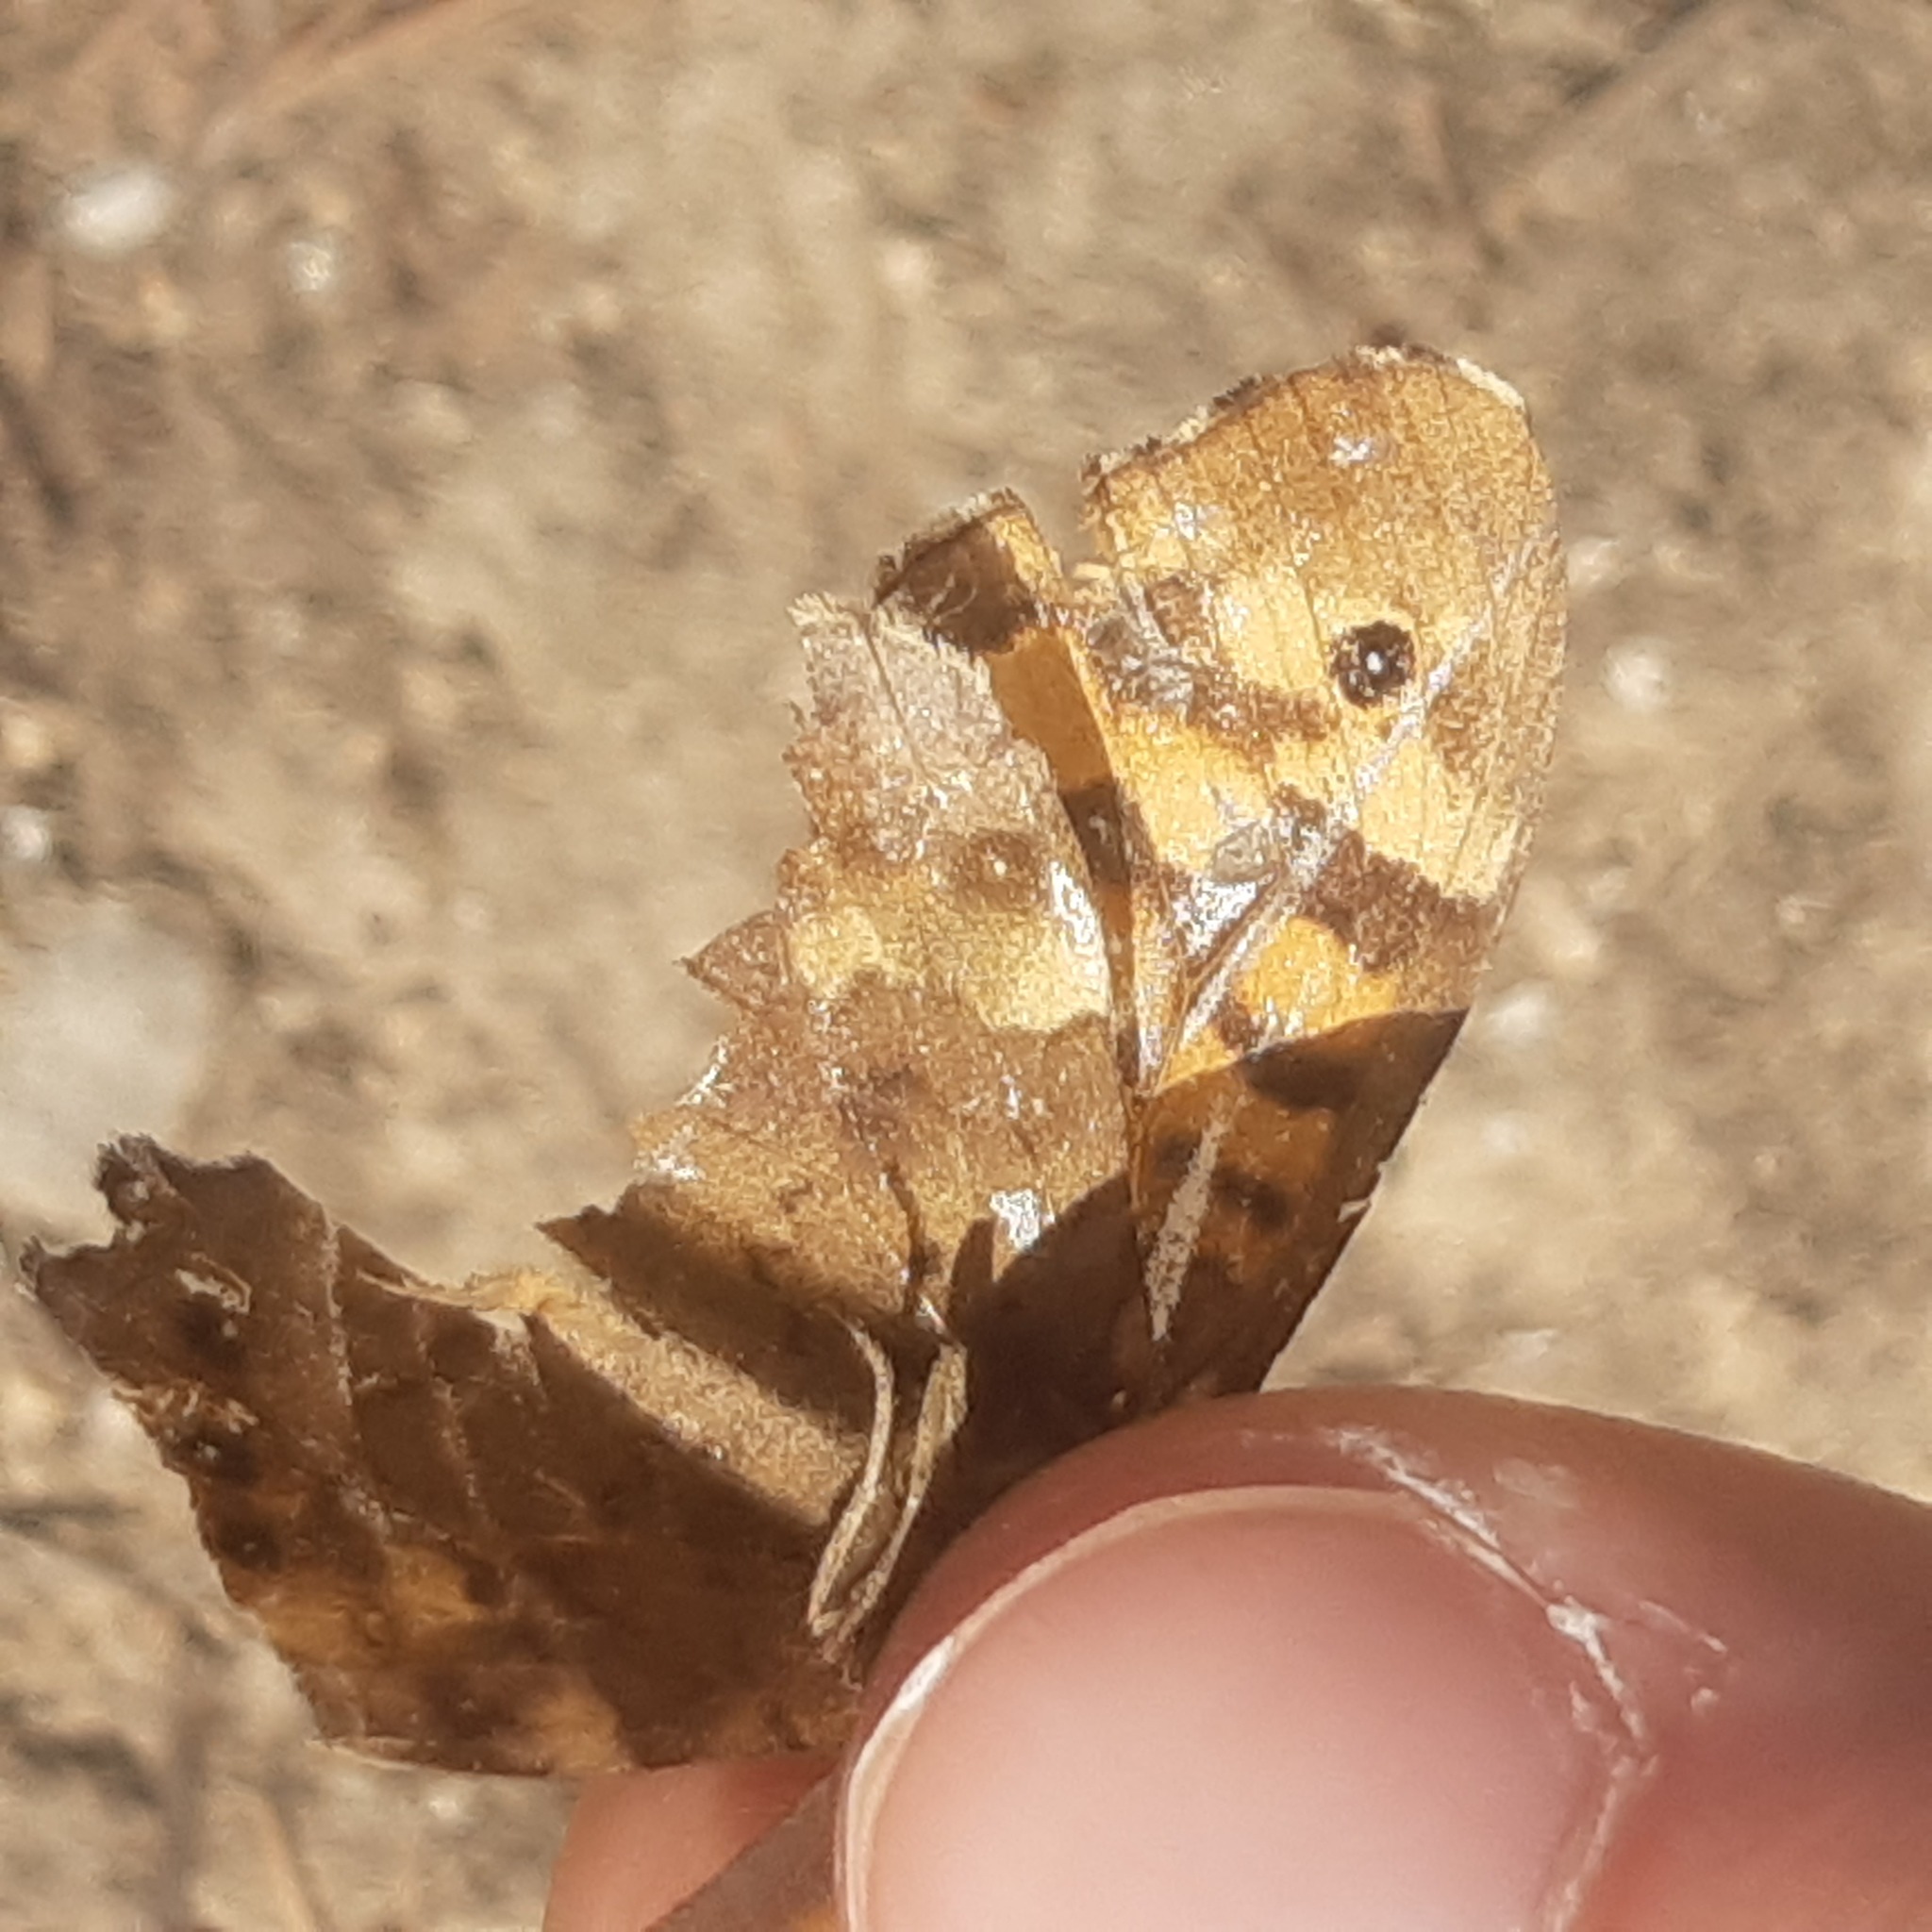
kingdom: Animalia
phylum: Arthropoda
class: Insecta
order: Lepidoptera
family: Nymphalidae
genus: Pararge
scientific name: Pararge aegeria
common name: Speckled wood
